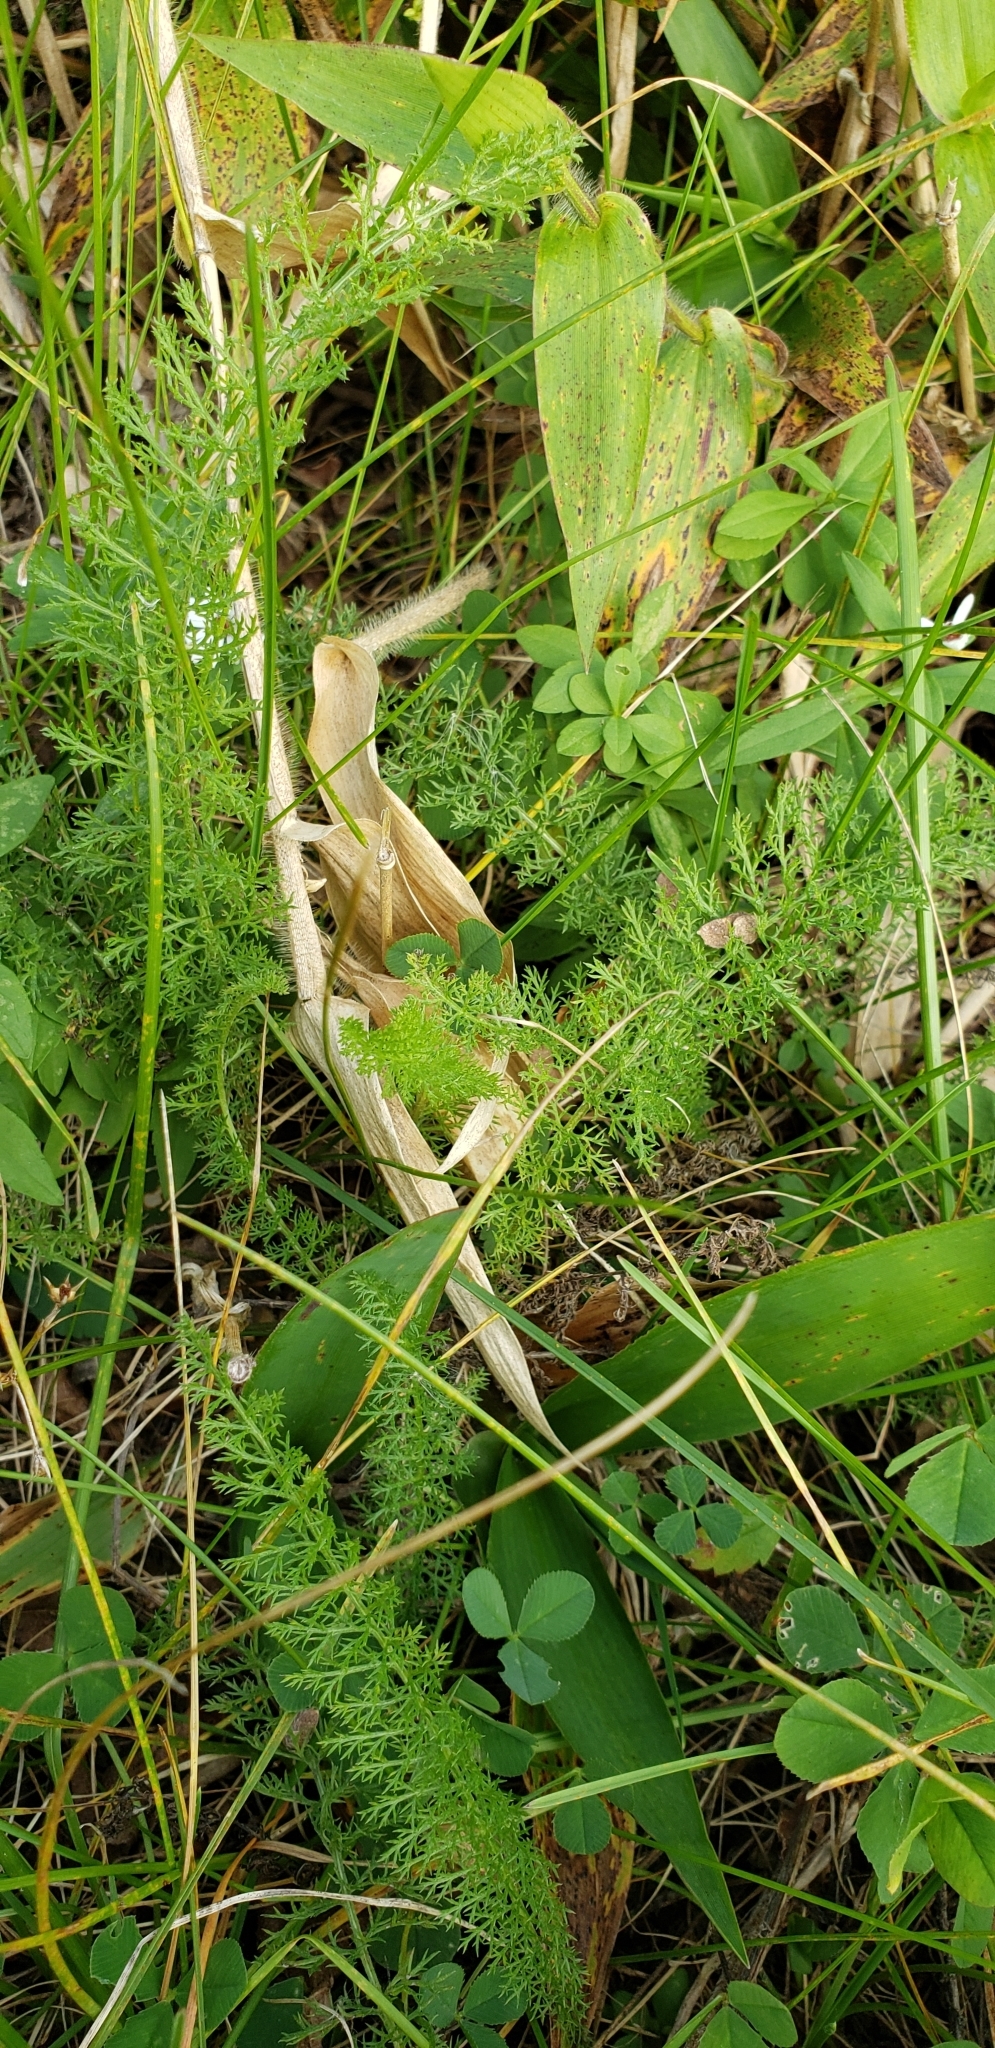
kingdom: Plantae
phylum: Tracheophyta
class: Magnoliopsida
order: Asterales
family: Asteraceae
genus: Achillea
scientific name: Achillea millefolium
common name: Yarrow
